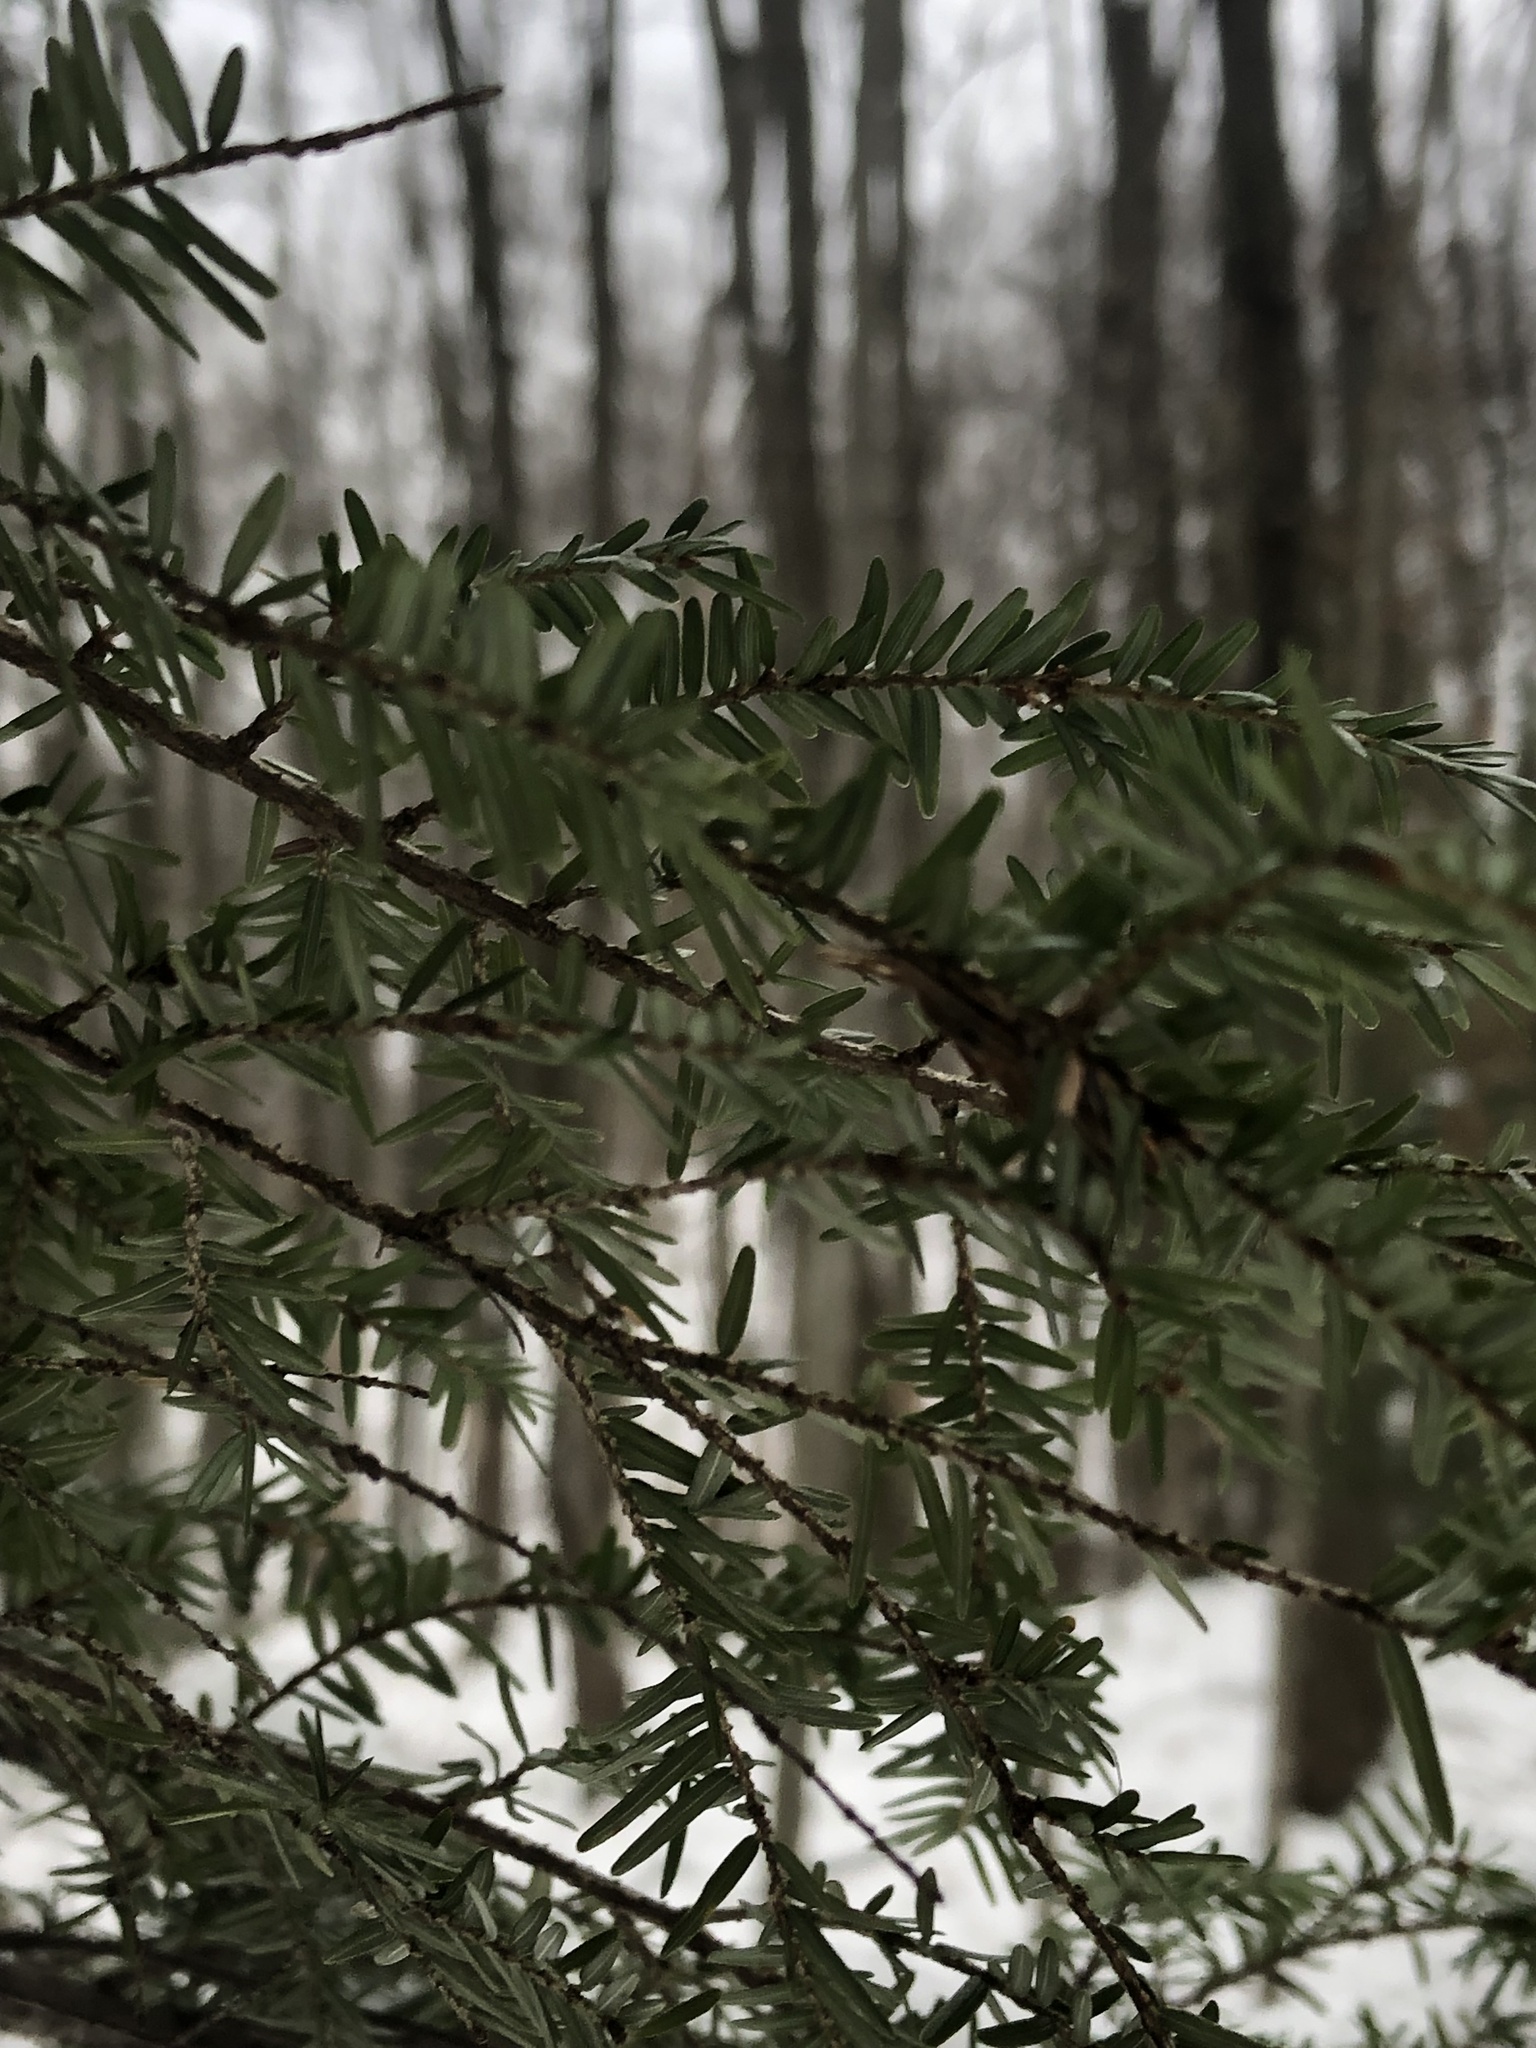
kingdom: Plantae
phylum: Tracheophyta
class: Pinopsida
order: Pinales
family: Pinaceae
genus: Tsuga
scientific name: Tsuga canadensis
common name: Eastern hemlock
